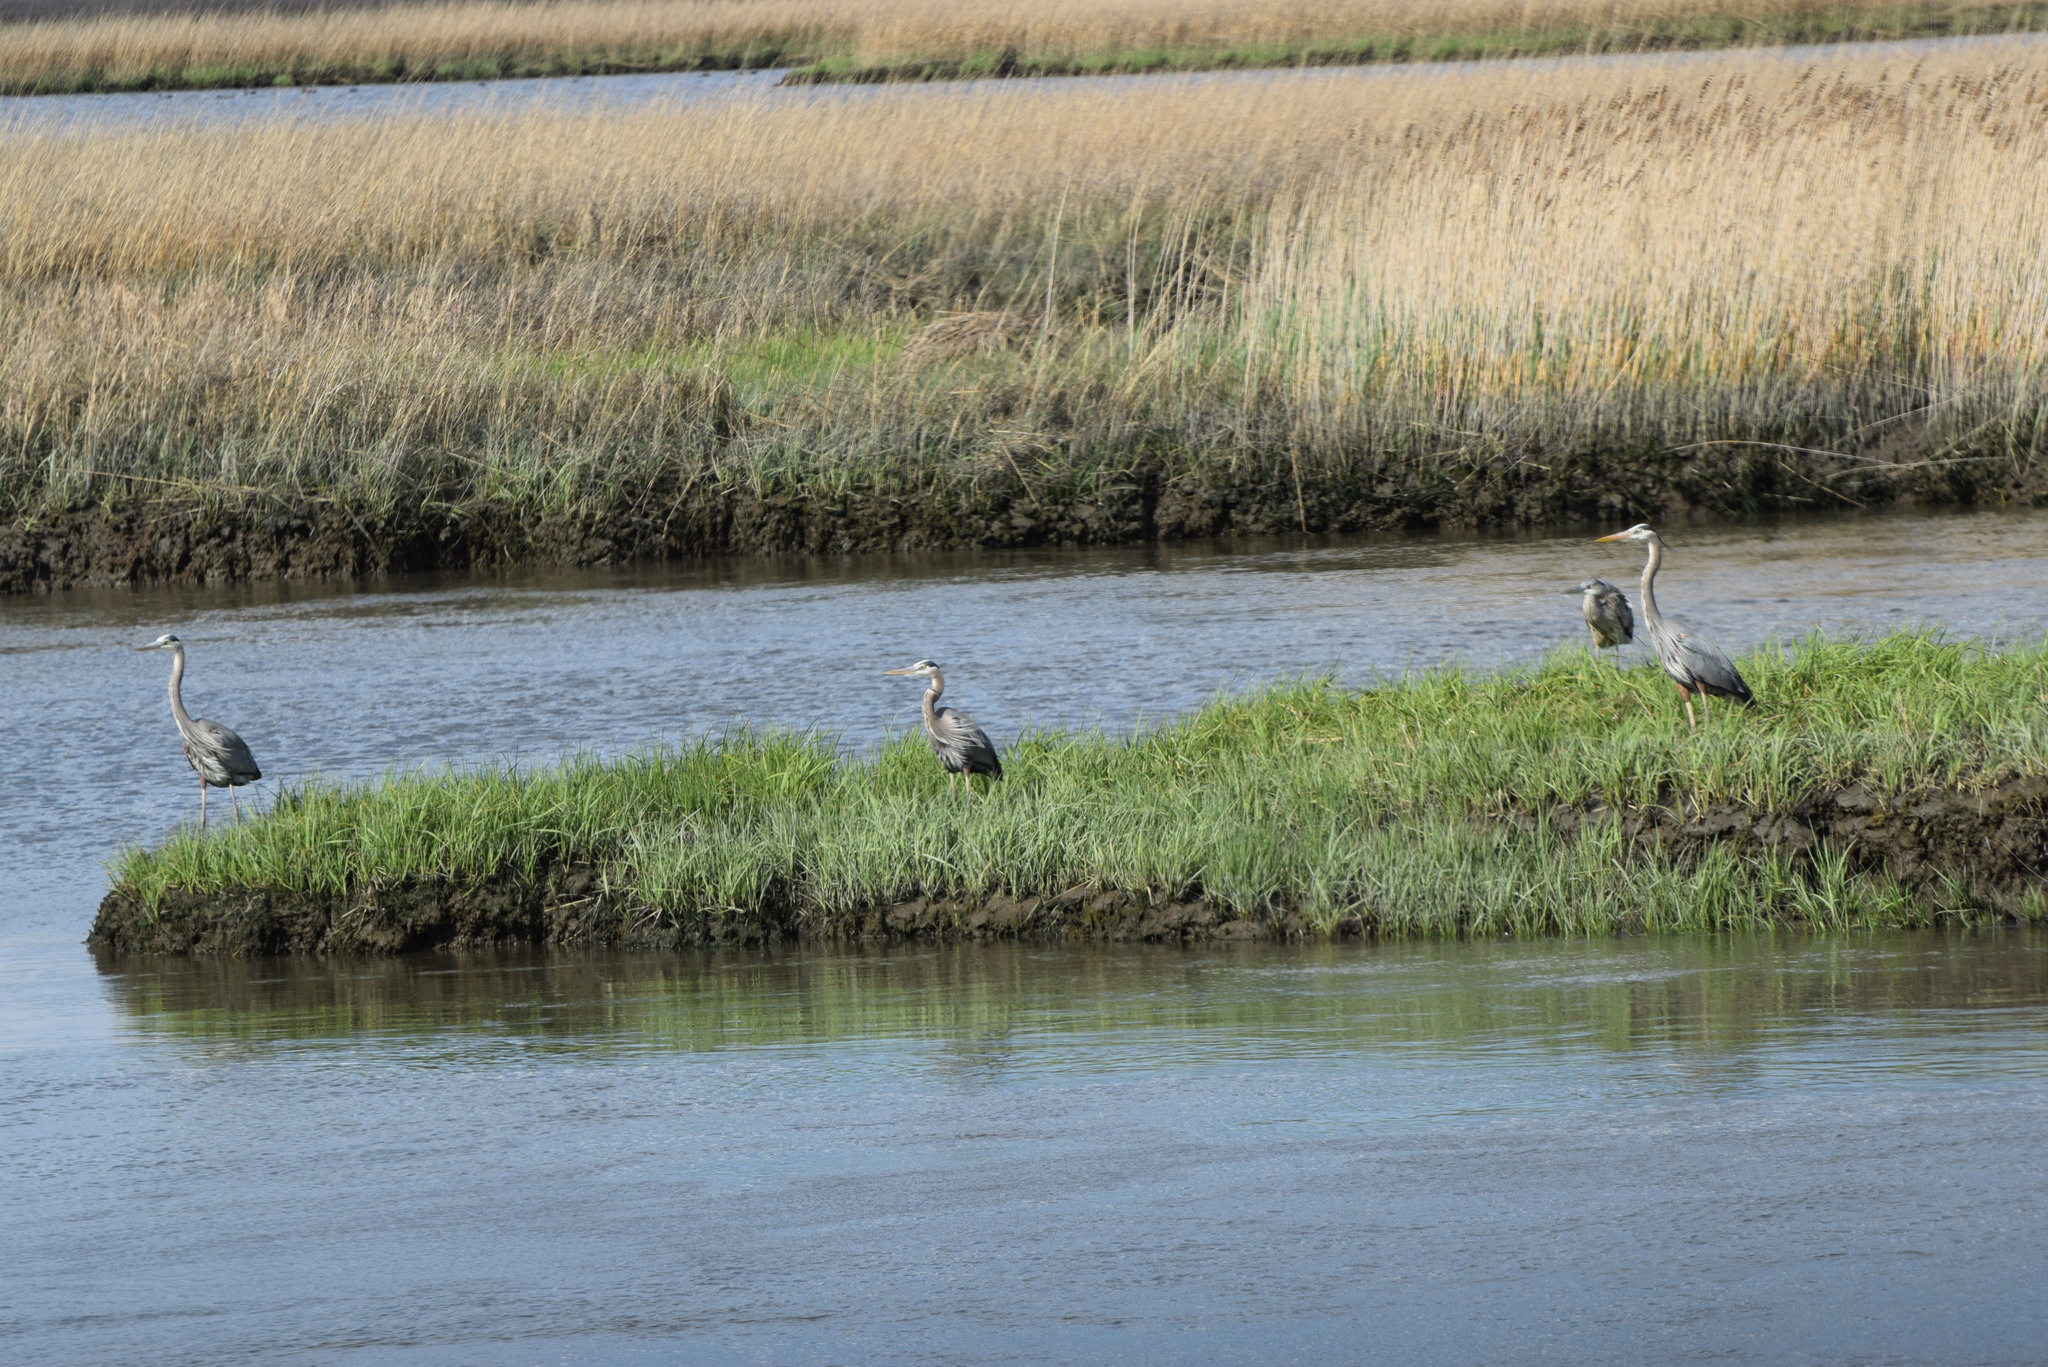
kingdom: Animalia
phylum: Chordata
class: Aves
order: Pelecaniformes
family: Ardeidae
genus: Ardea
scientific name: Ardea herodias
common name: Great blue heron
